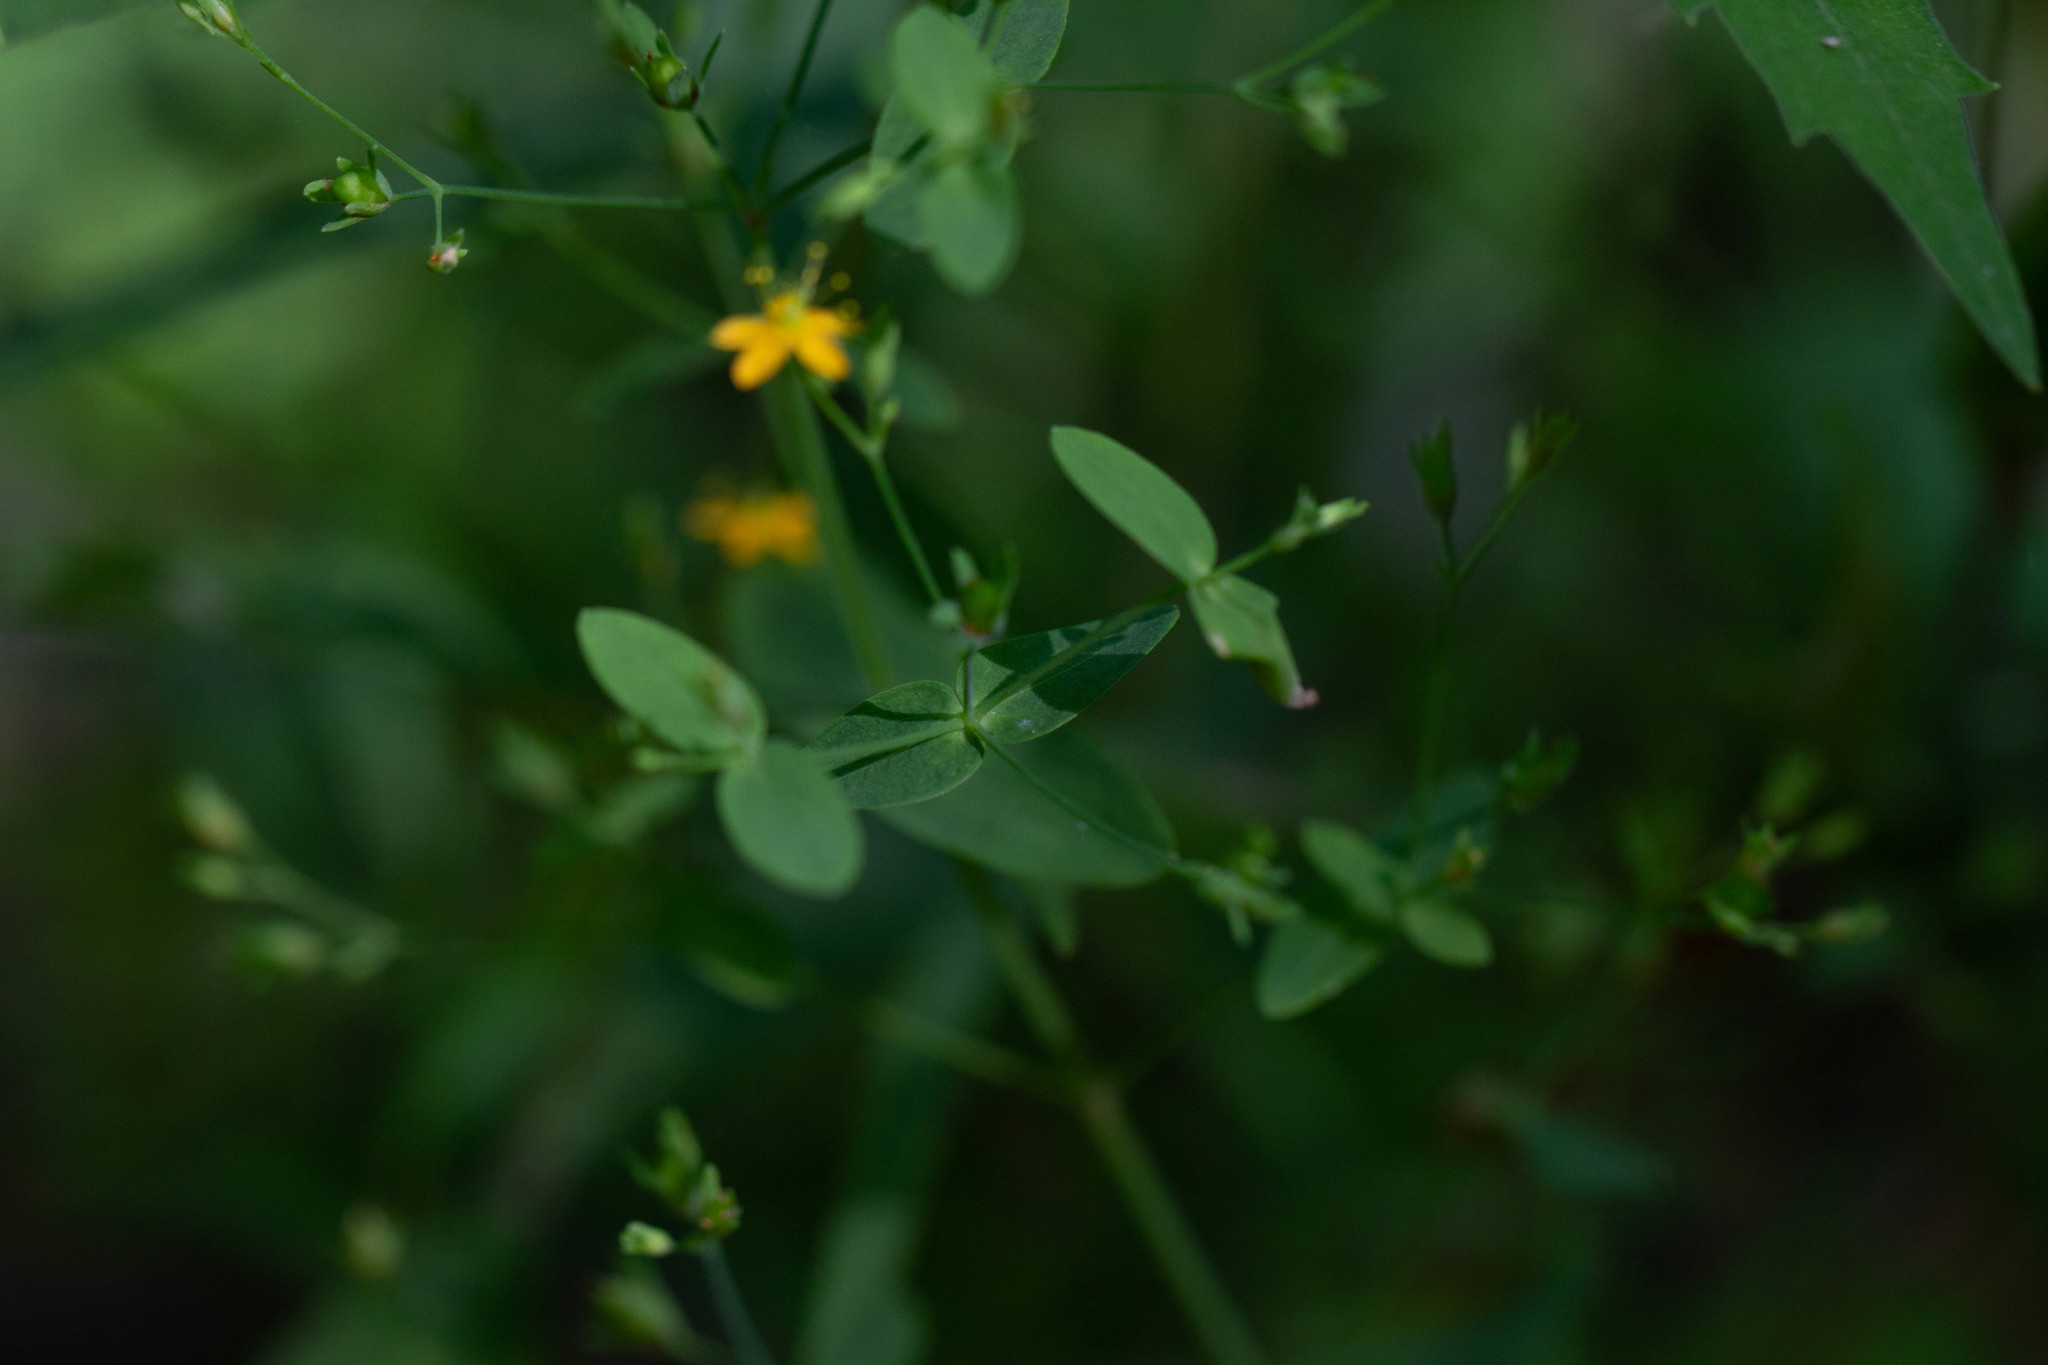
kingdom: Plantae
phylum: Tracheophyta
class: Magnoliopsida
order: Malpighiales
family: Hypericaceae
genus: Hypericum
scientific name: Hypericum mutilum
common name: Dwarf st. john's-wort
